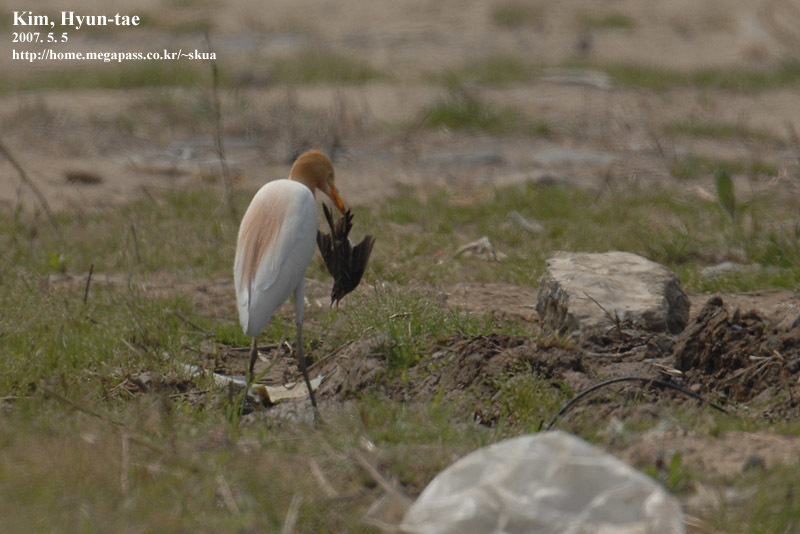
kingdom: Animalia
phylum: Chordata
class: Aves
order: Pelecaniformes
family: Ardeidae
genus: Bubulcus
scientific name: Bubulcus coromandus
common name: Eastern cattle egret
